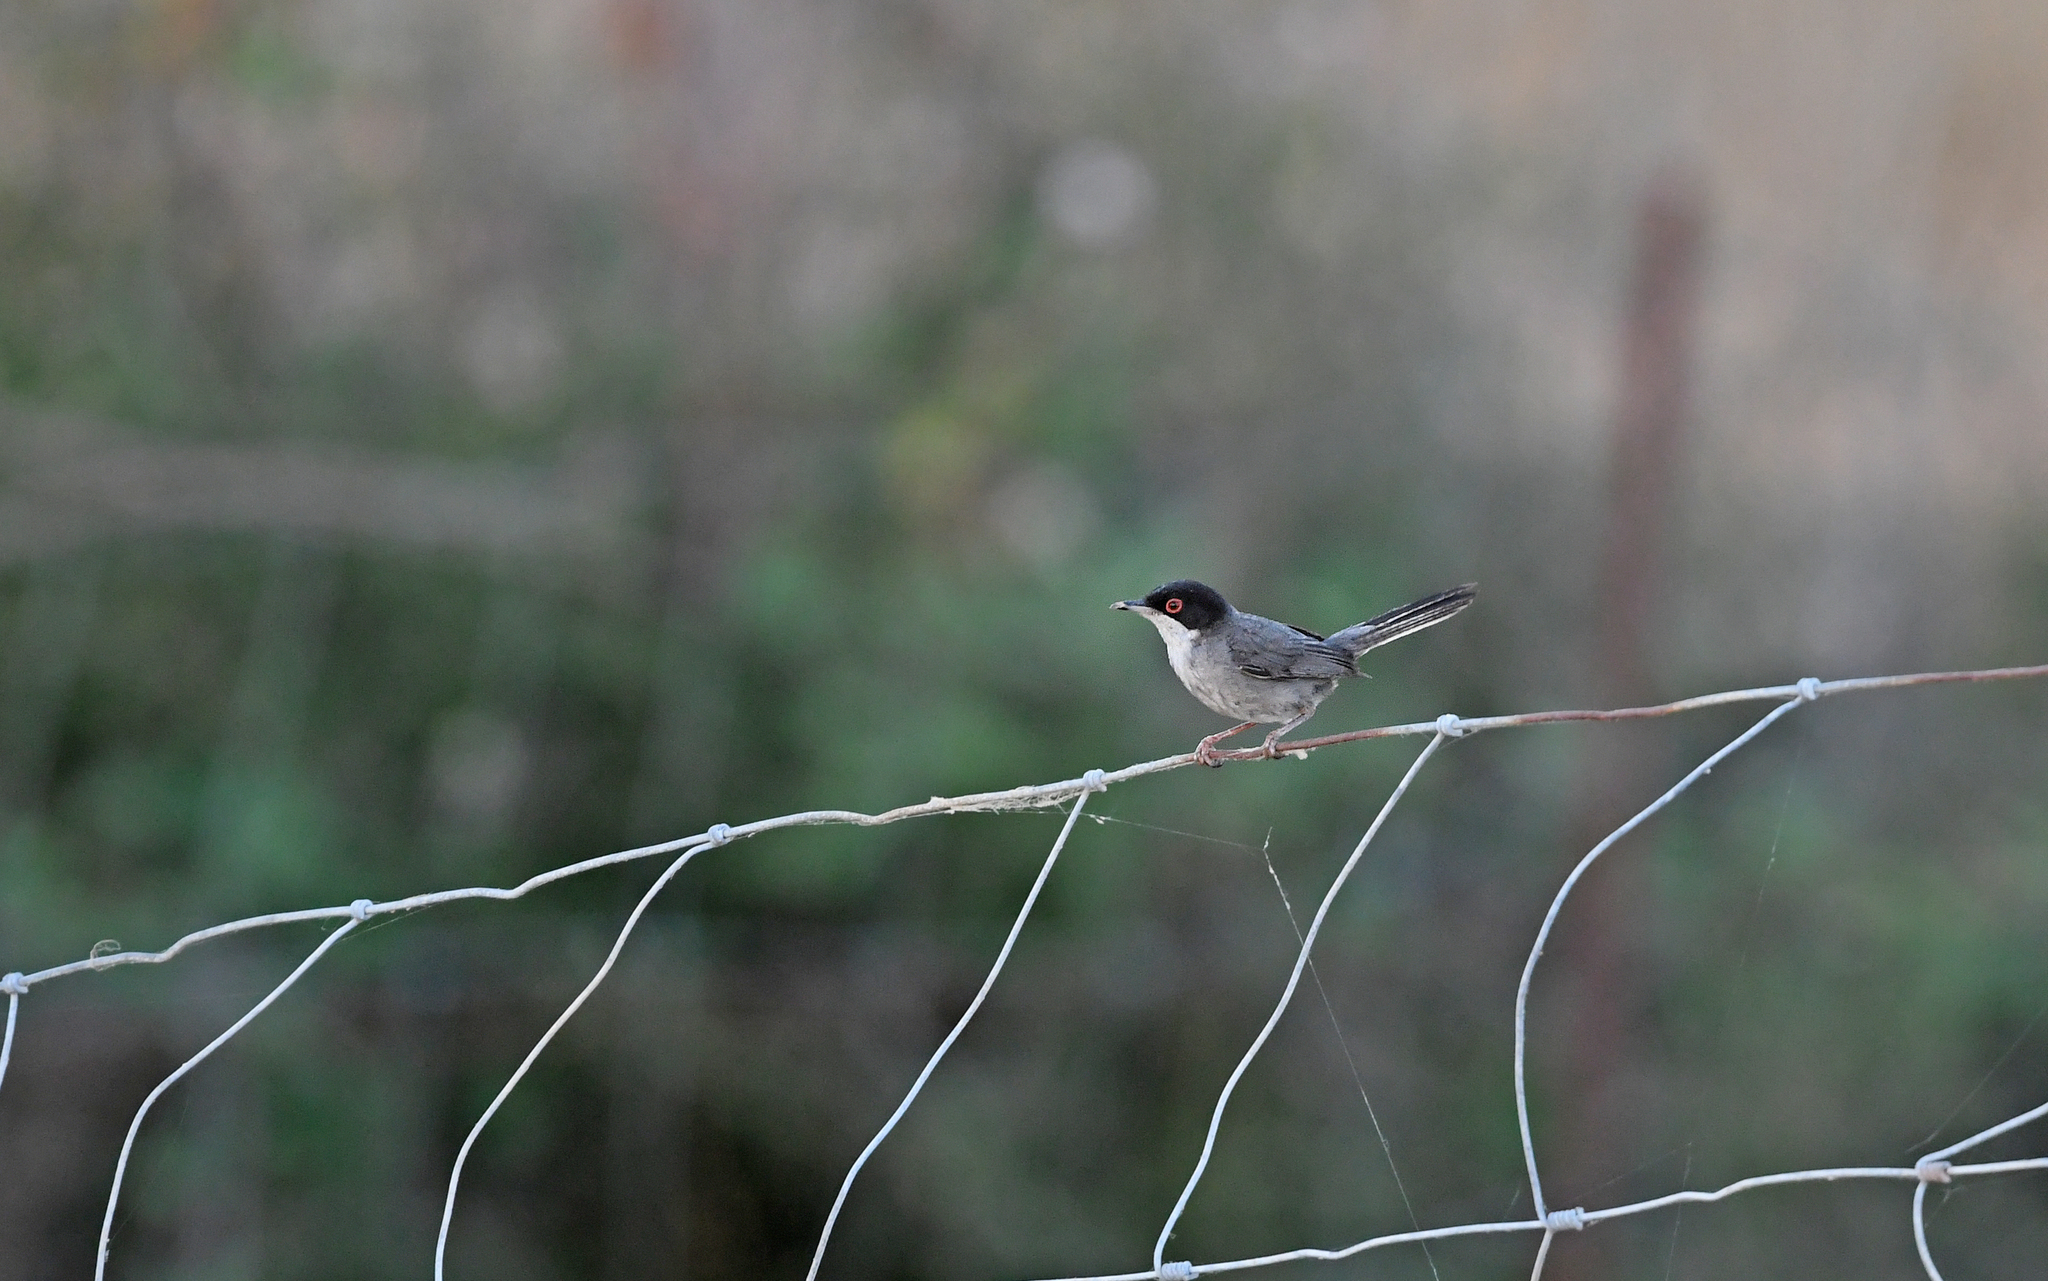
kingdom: Animalia
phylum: Chordata
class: Aves
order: Passeriformes
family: Sylviidae
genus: Curruca
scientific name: Curruca melanocephala
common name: Sardinian warbler
